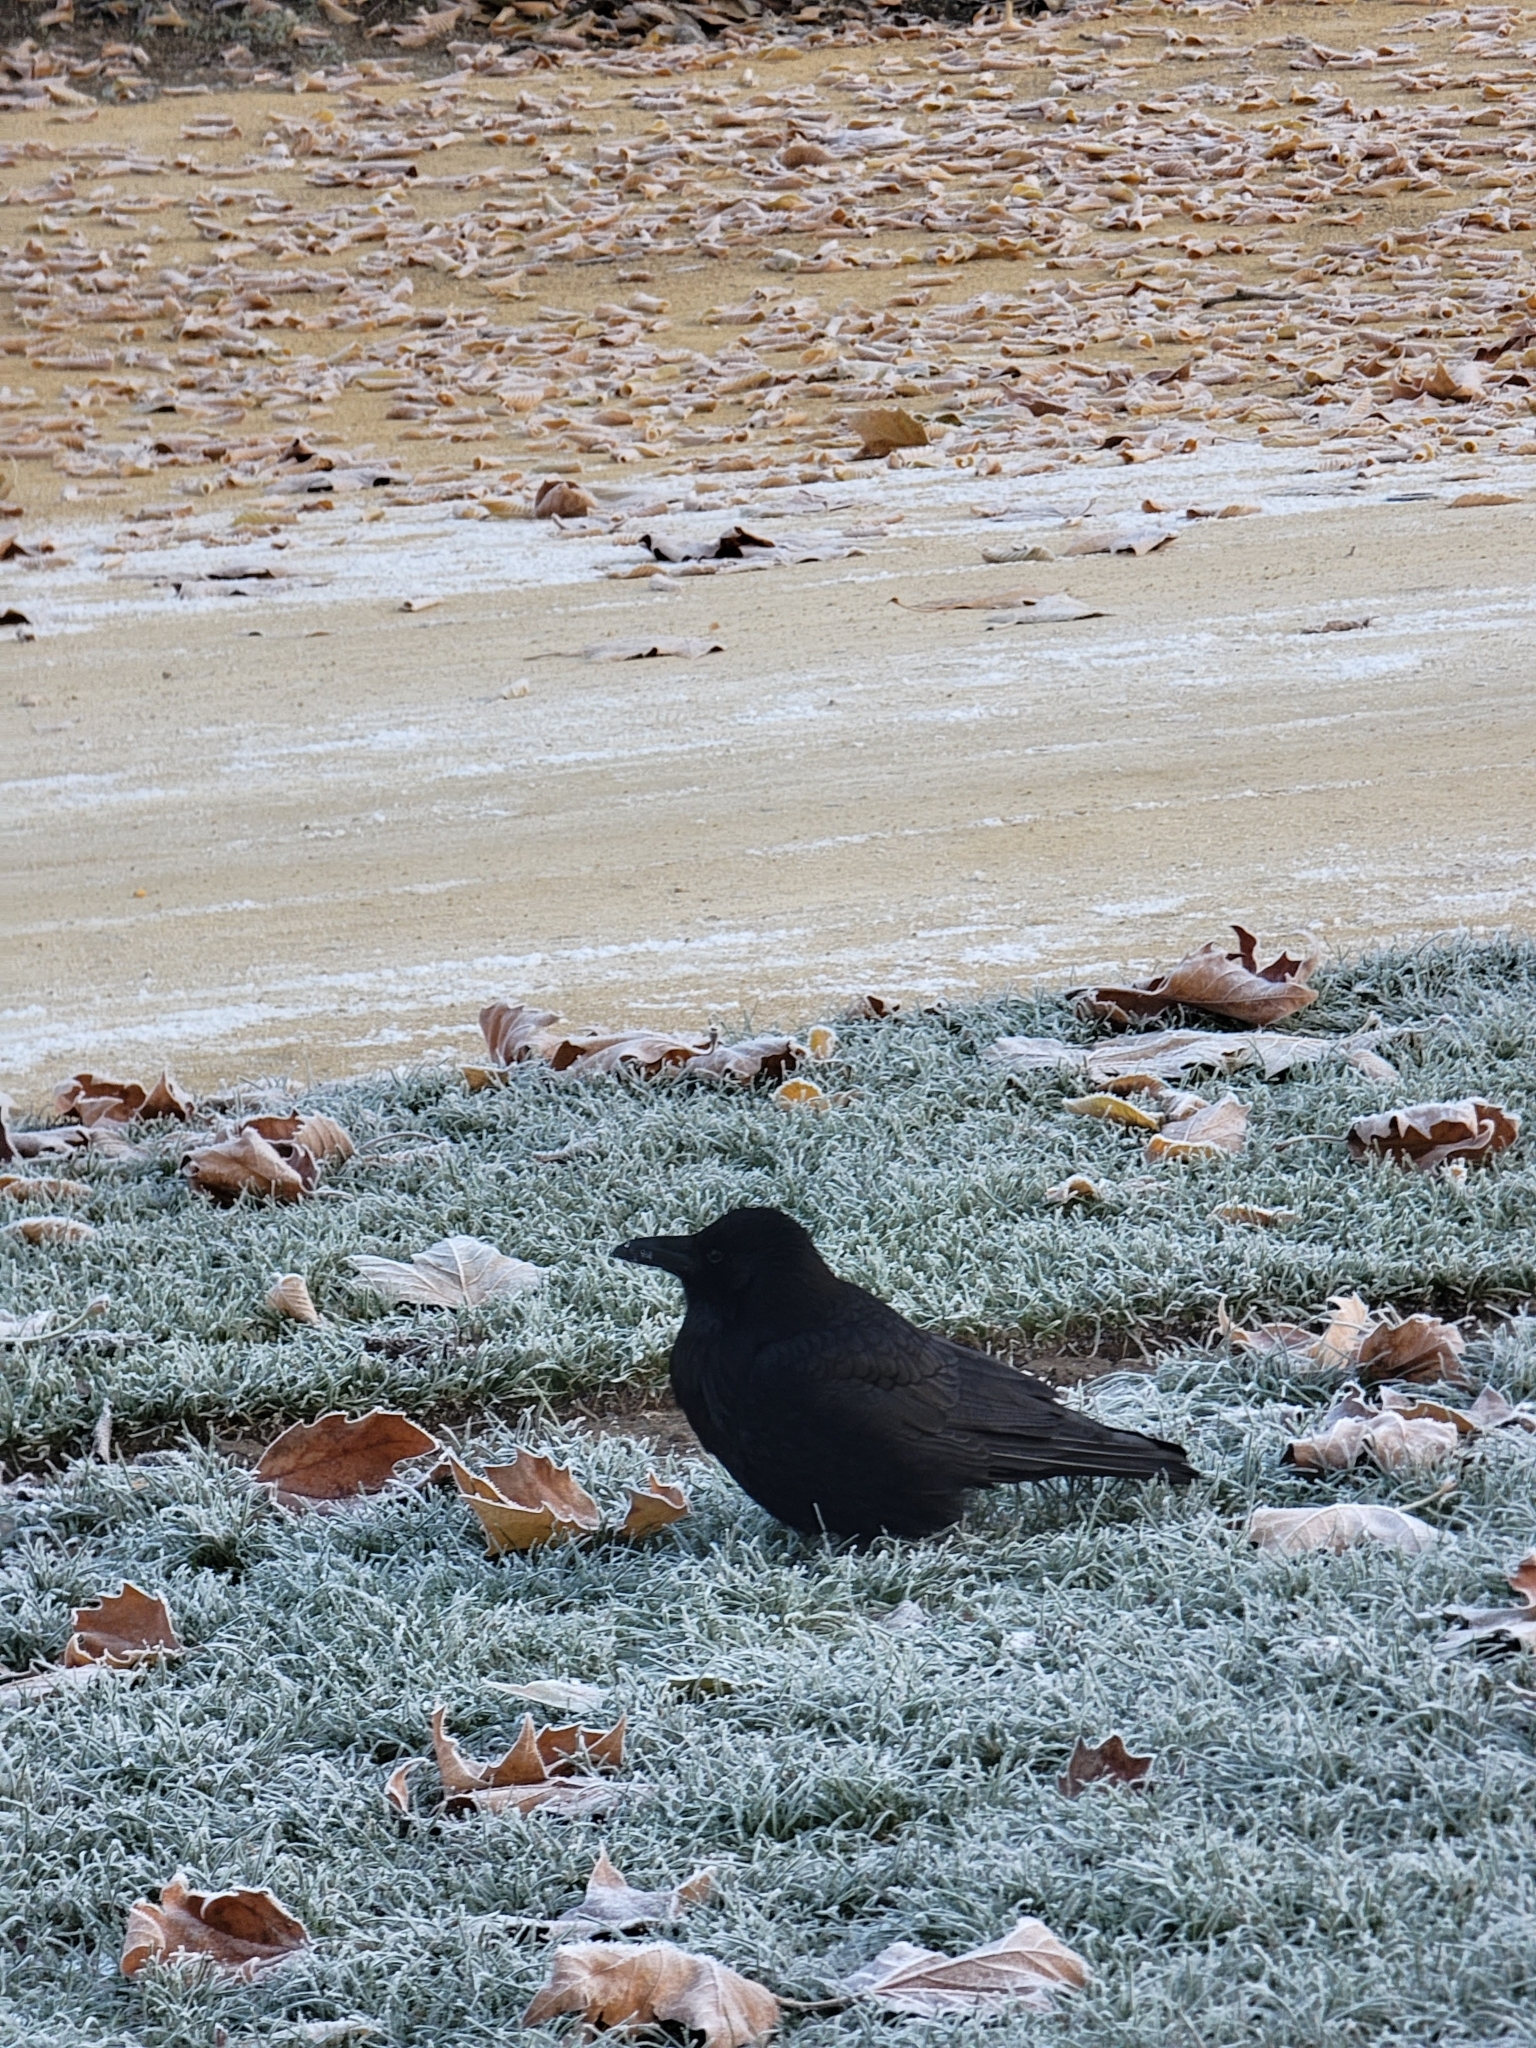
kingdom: Animalia
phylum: Chordata
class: Aves
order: Passeriformes
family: Corvidae
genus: Corvus
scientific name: Corvus corone
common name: Carrion crow
